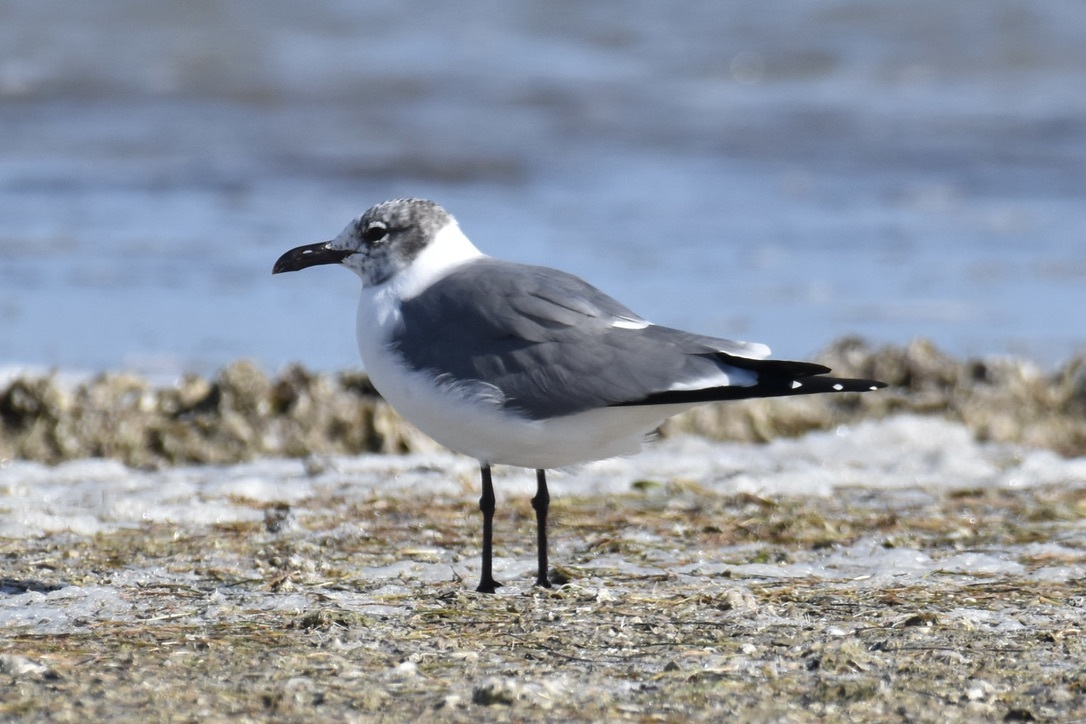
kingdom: Animalia
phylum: Chordata
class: Aves
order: Charadriiformes
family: Laridae
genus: Leucophaeus
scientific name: Leucophaeus atricilla
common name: Laughing gull
